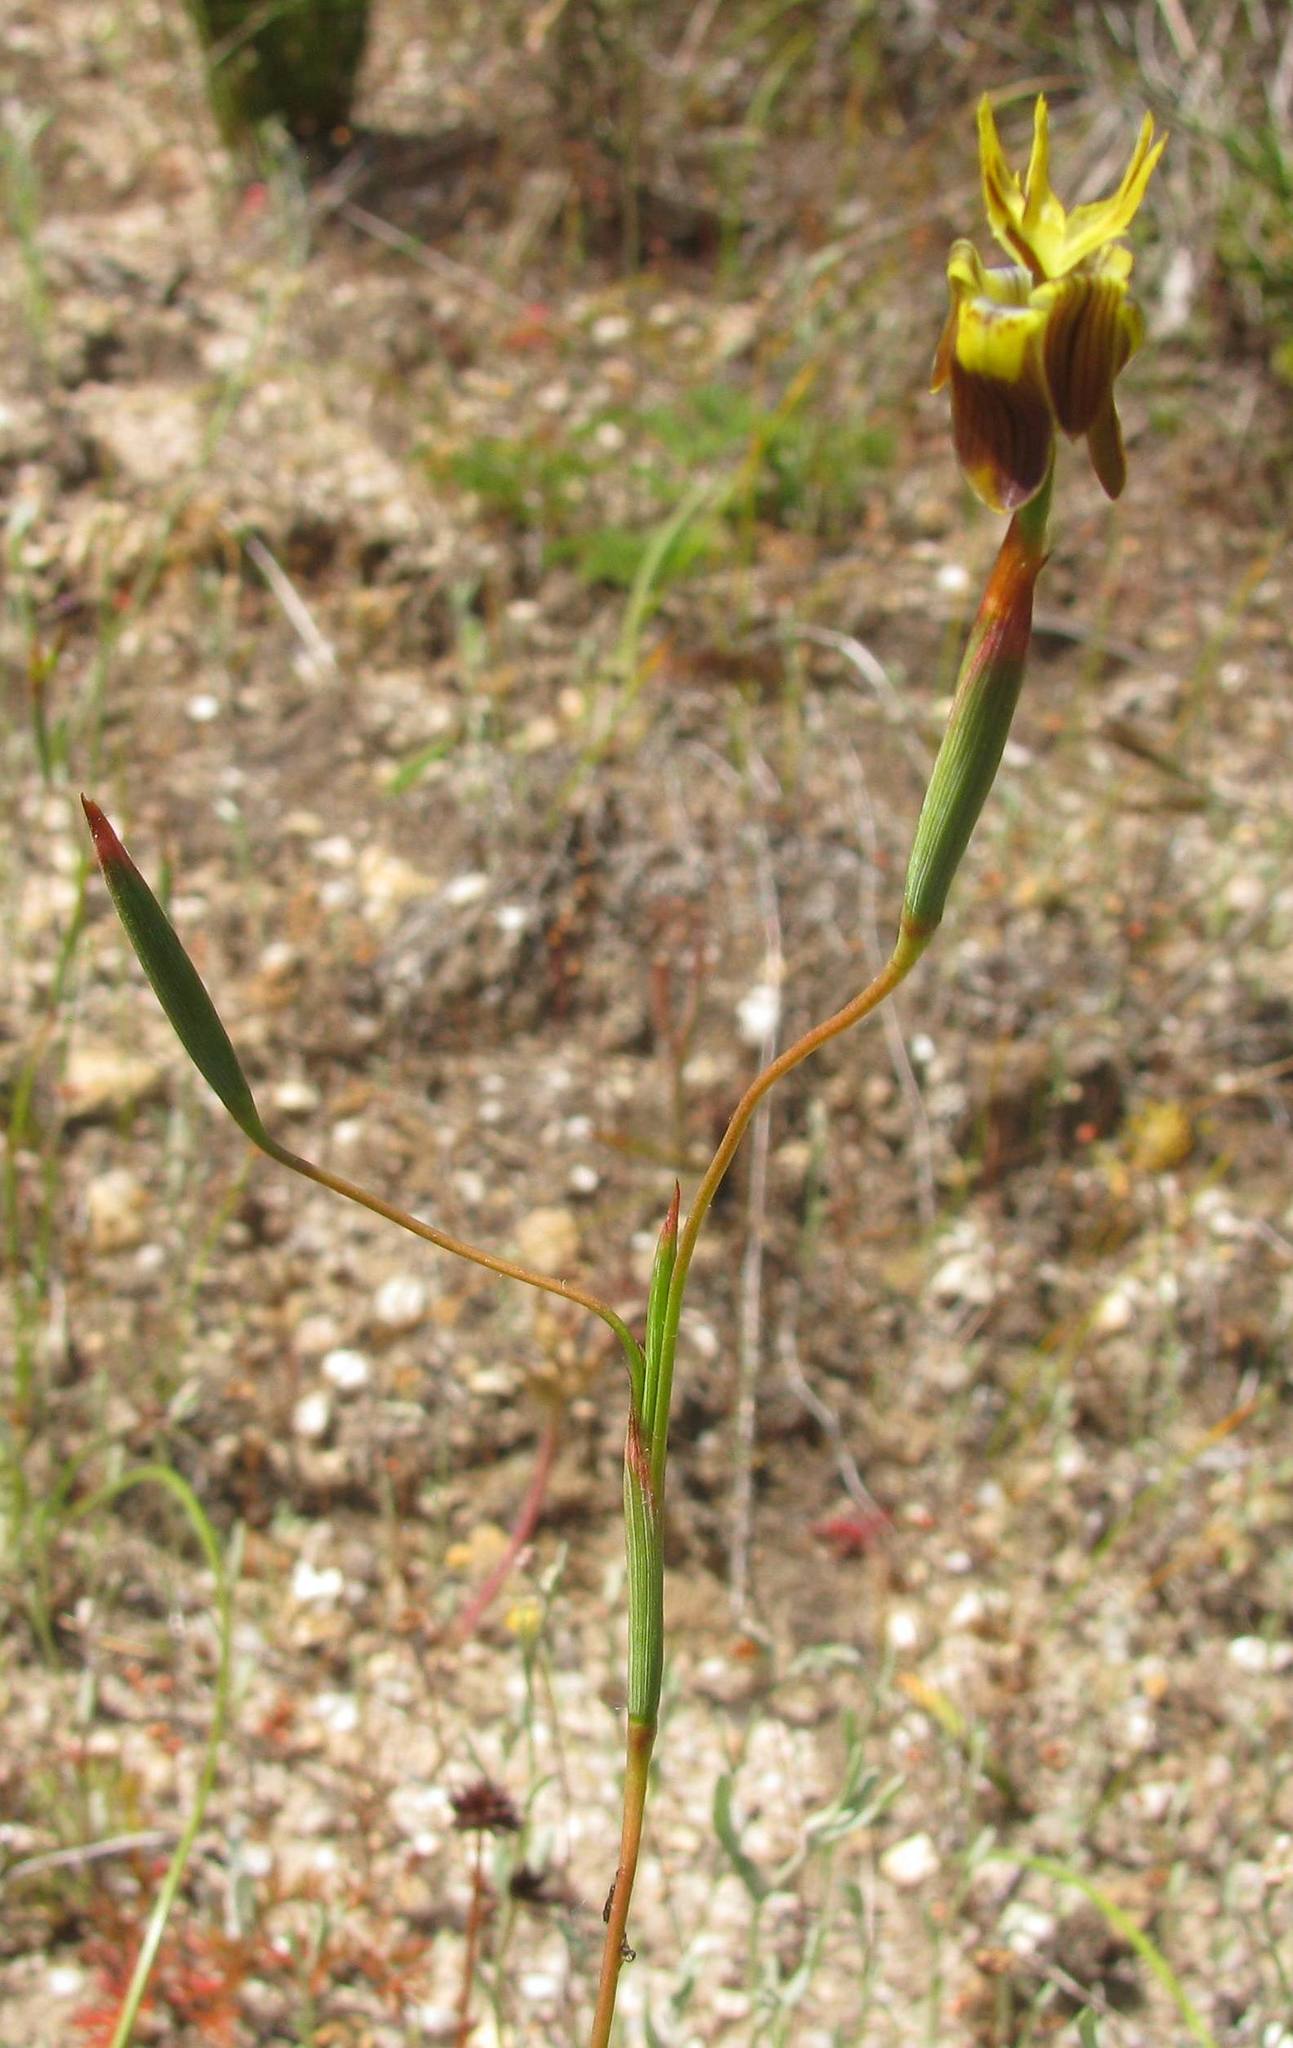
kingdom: Plantae
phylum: Tracheophyta
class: Liliopsida
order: Asparagales
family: Iridaceae
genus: Moraea
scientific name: Moraea inconspicua
